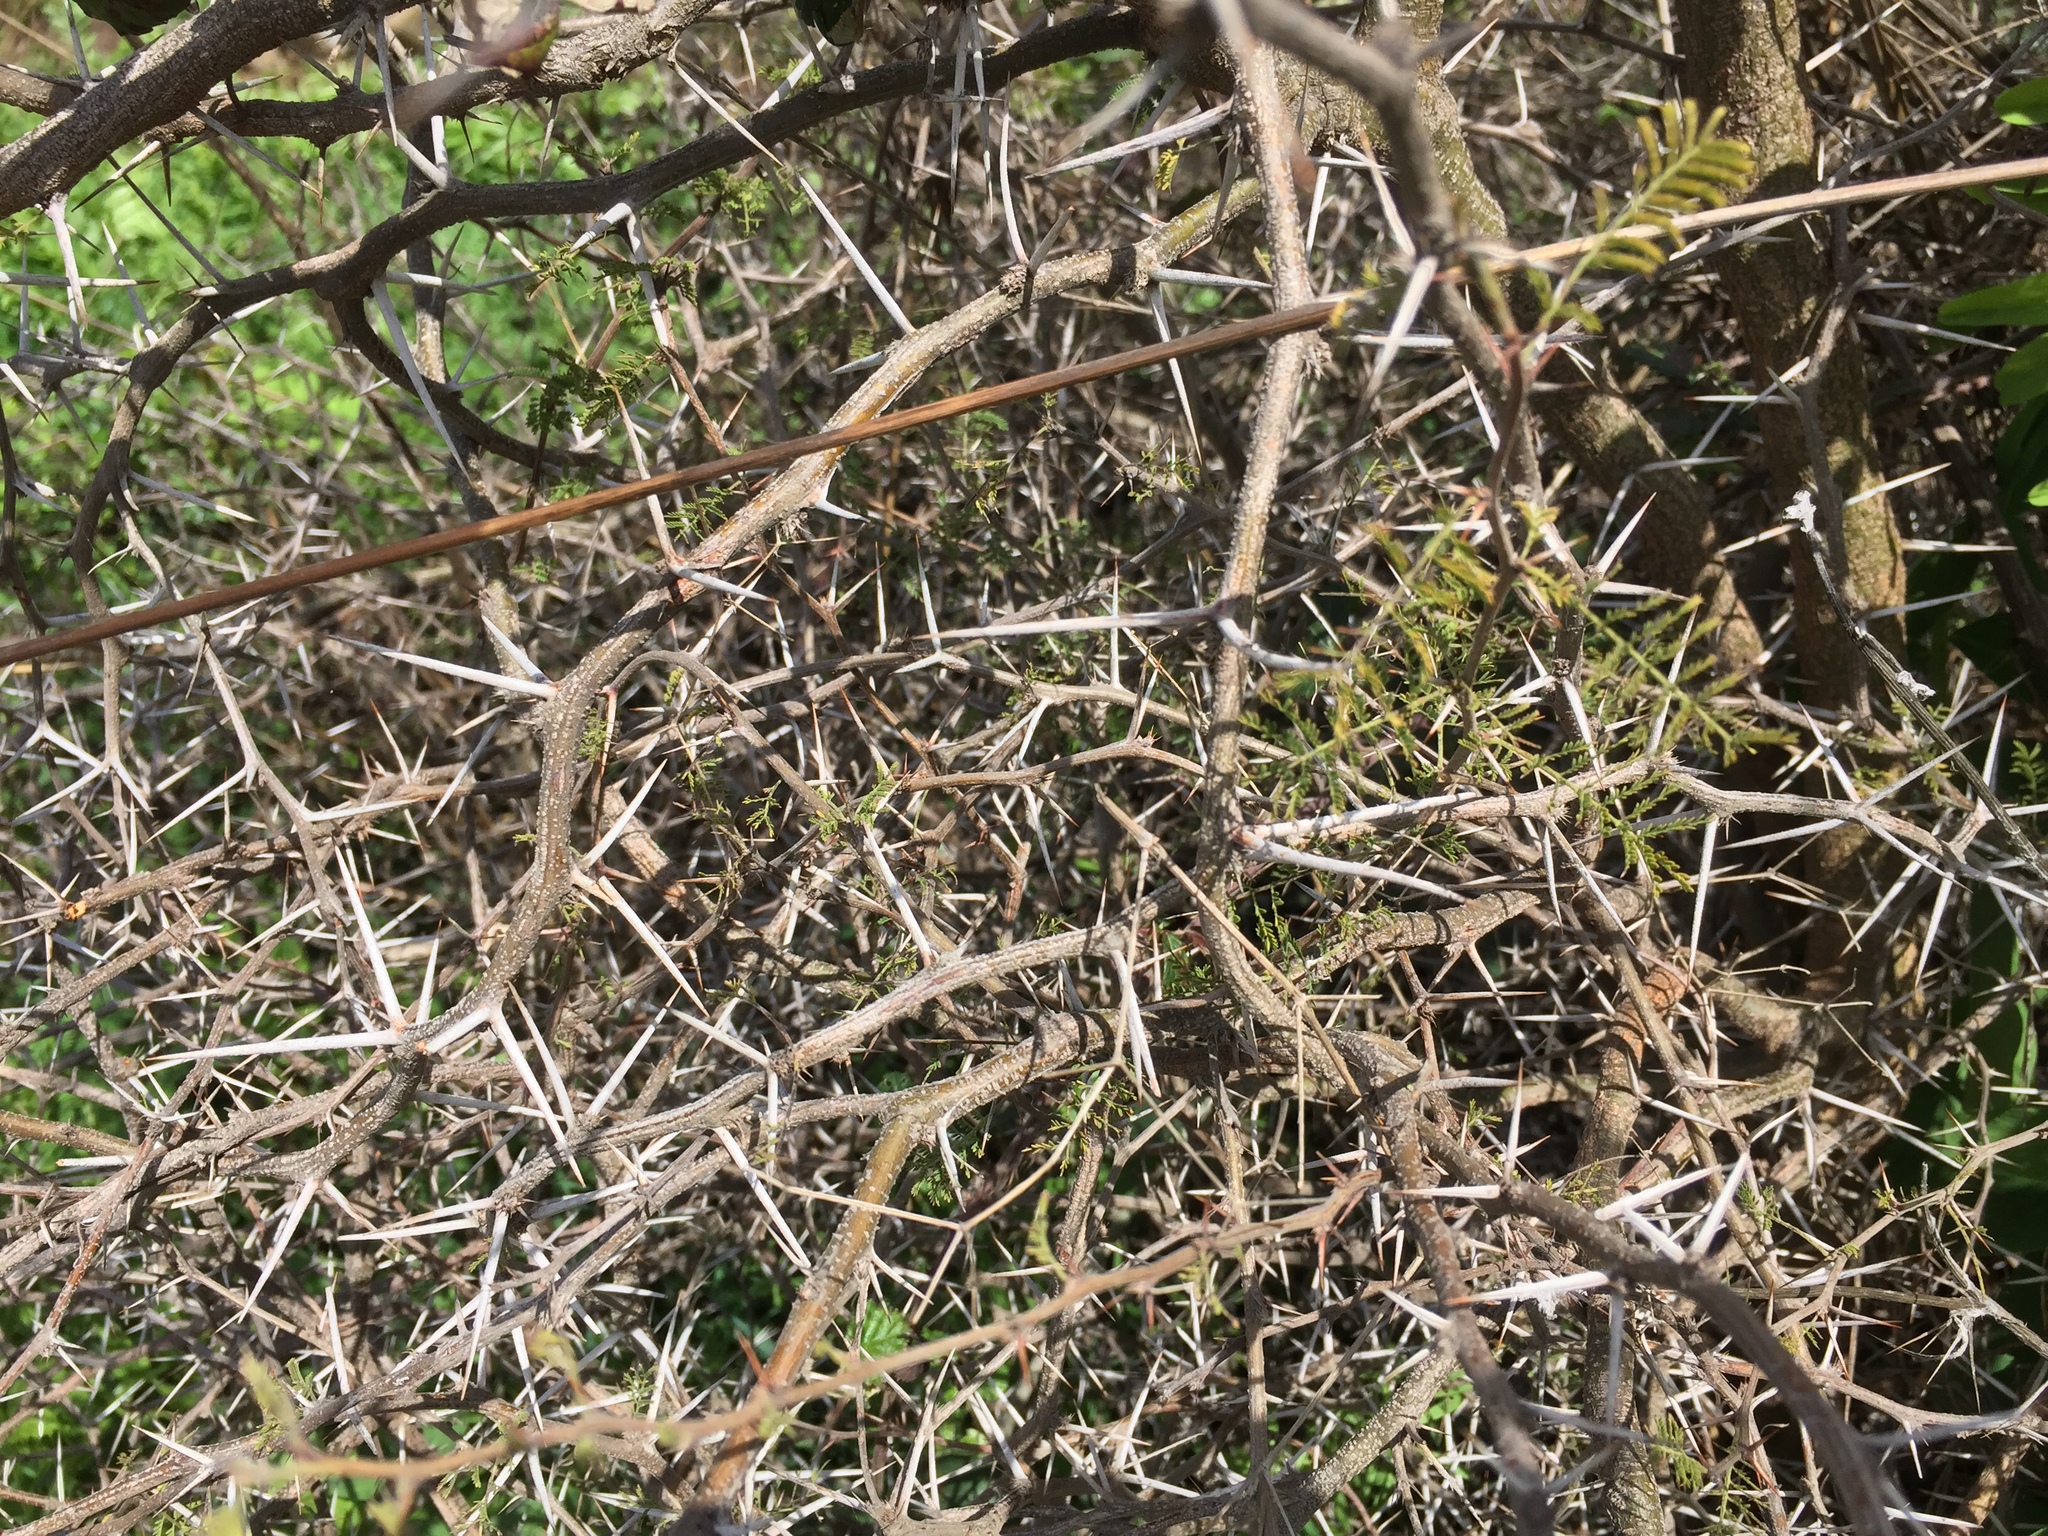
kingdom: Plantae
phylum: Tracheophyta
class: Magnoliopsida
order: Fabales
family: Fabaceae
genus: Mimosa
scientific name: Mimosa aculeaticarpa
